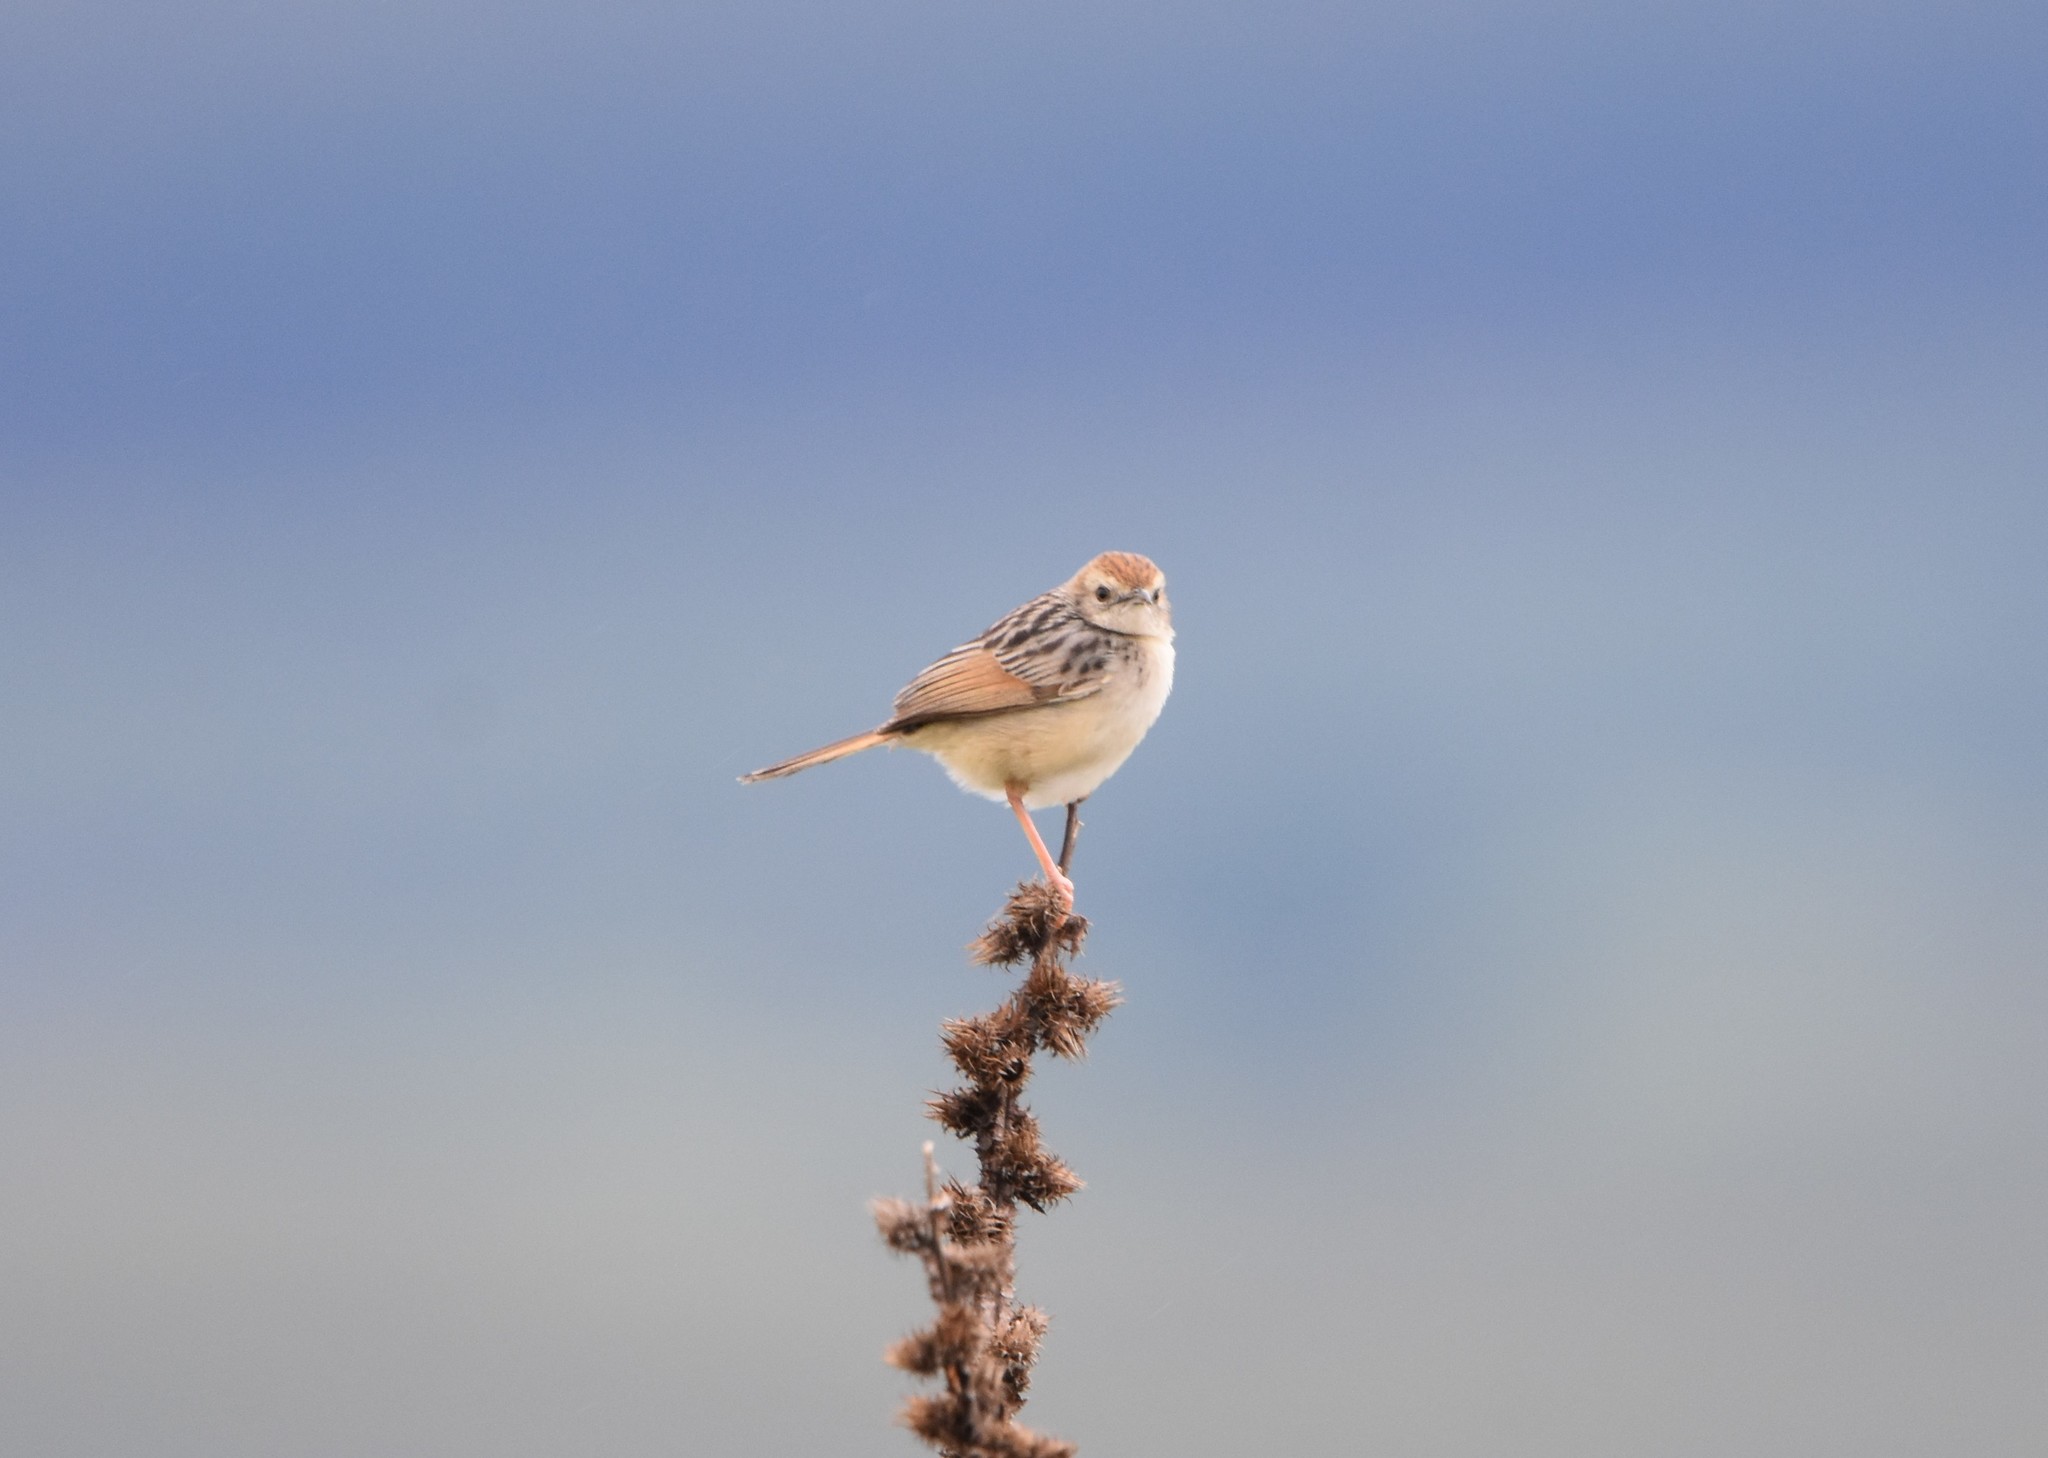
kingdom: Animalia
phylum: Chordata
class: Aves
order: Passeriformes
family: Cisticolidae
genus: Cisticola
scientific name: Cisticola lais
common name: Wailing cisticola
